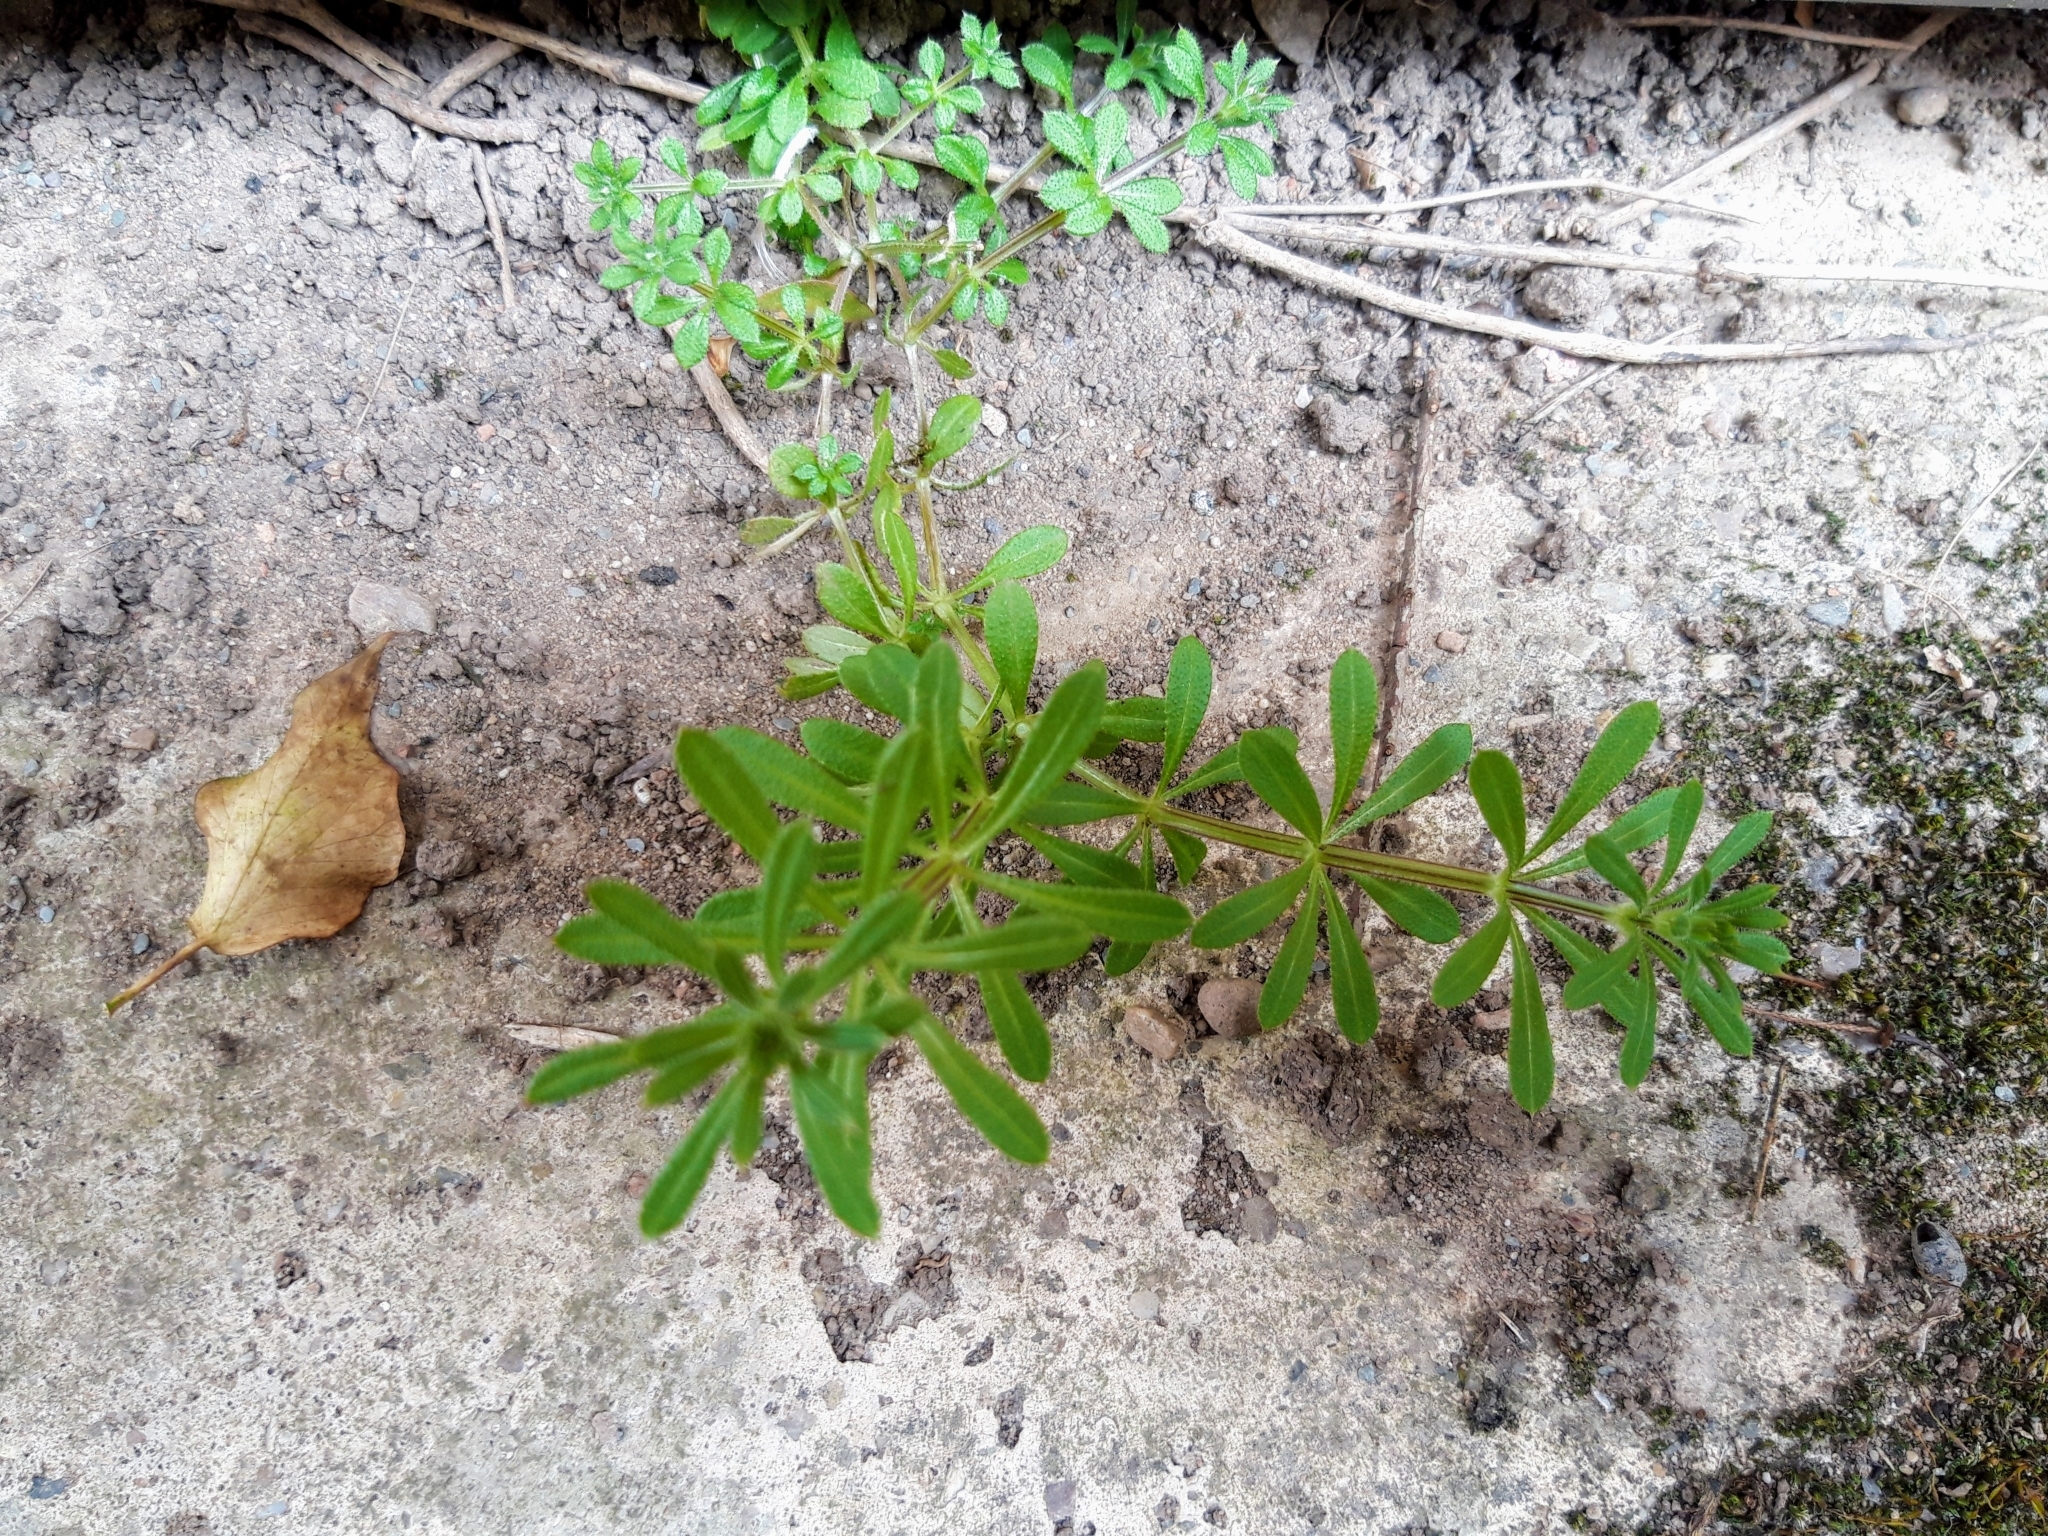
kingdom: Plantae
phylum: Tracheophyta
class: Magnoliopsida
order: Gentianales
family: Rubiaceae
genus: Galium
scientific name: Galium aparine
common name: Cleavers
